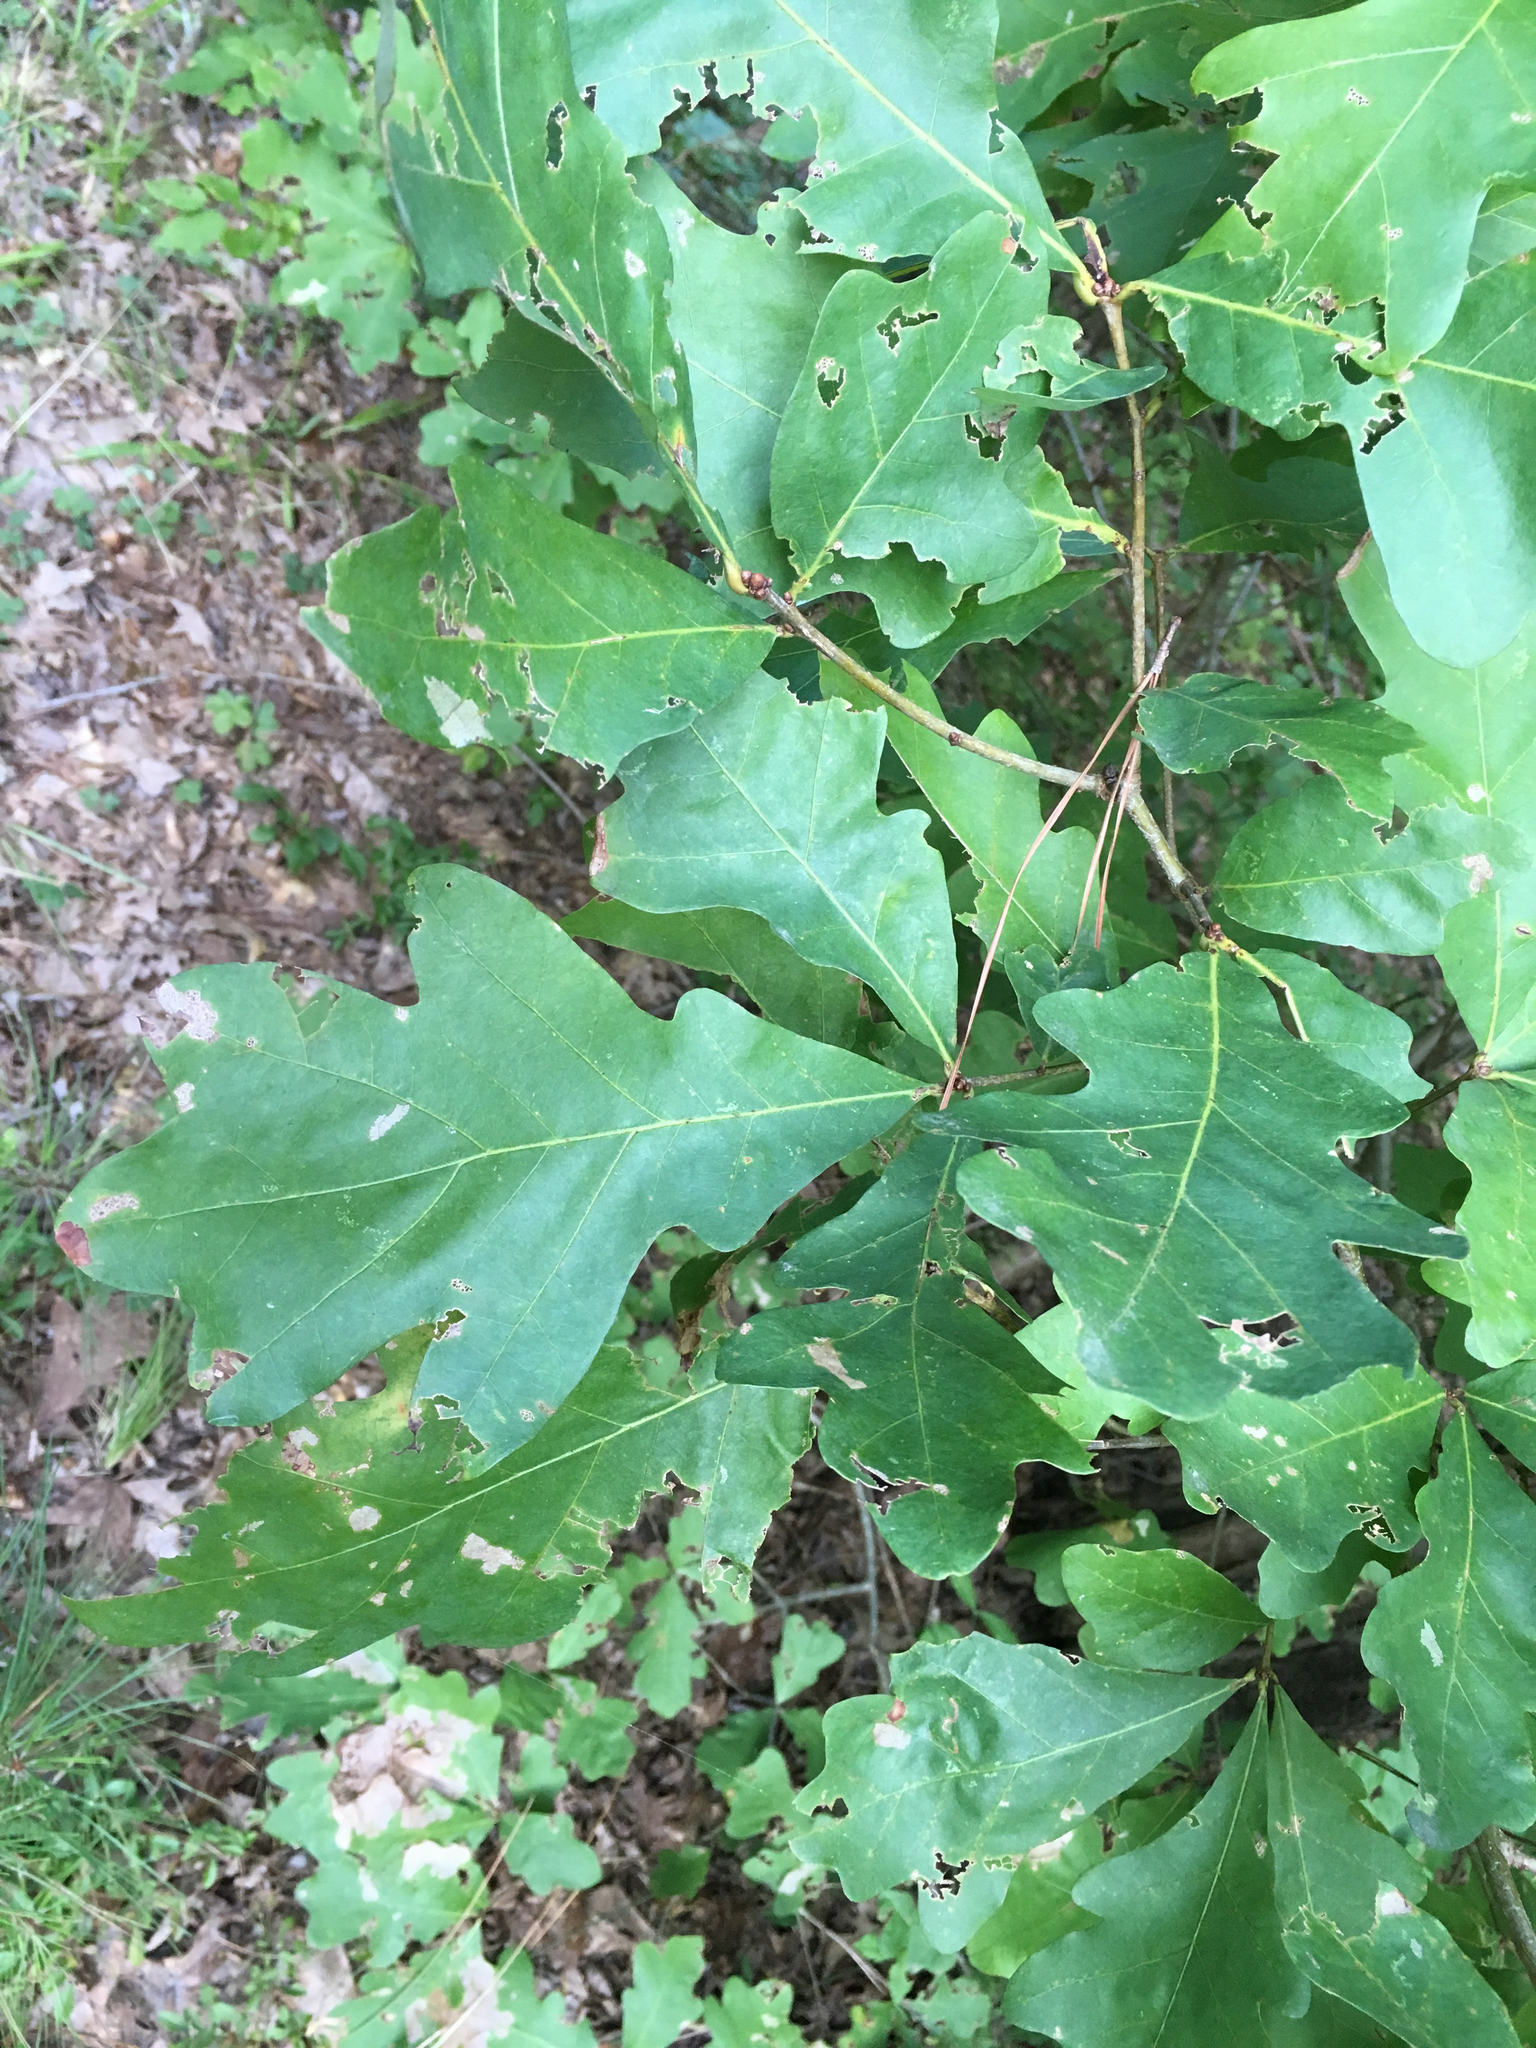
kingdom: Plantae
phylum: Tracheophyta
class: Magnoliopsida
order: Fagales
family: Fagaceae
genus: Quercus
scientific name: Quercus alba
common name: White oak
